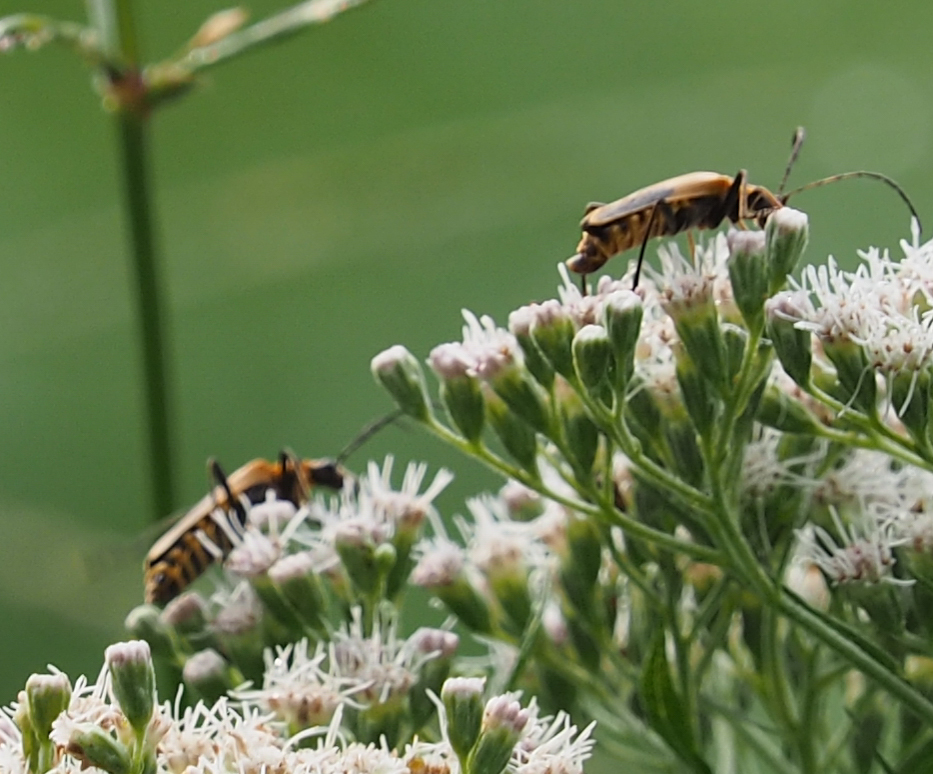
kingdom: Animalia
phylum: Arthropoda
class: Insecta
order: Coleoptera
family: Cantharidae
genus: Chauliognathus
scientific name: Chauliognathus pensylvanicus
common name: Goldenrod soldier beetle
